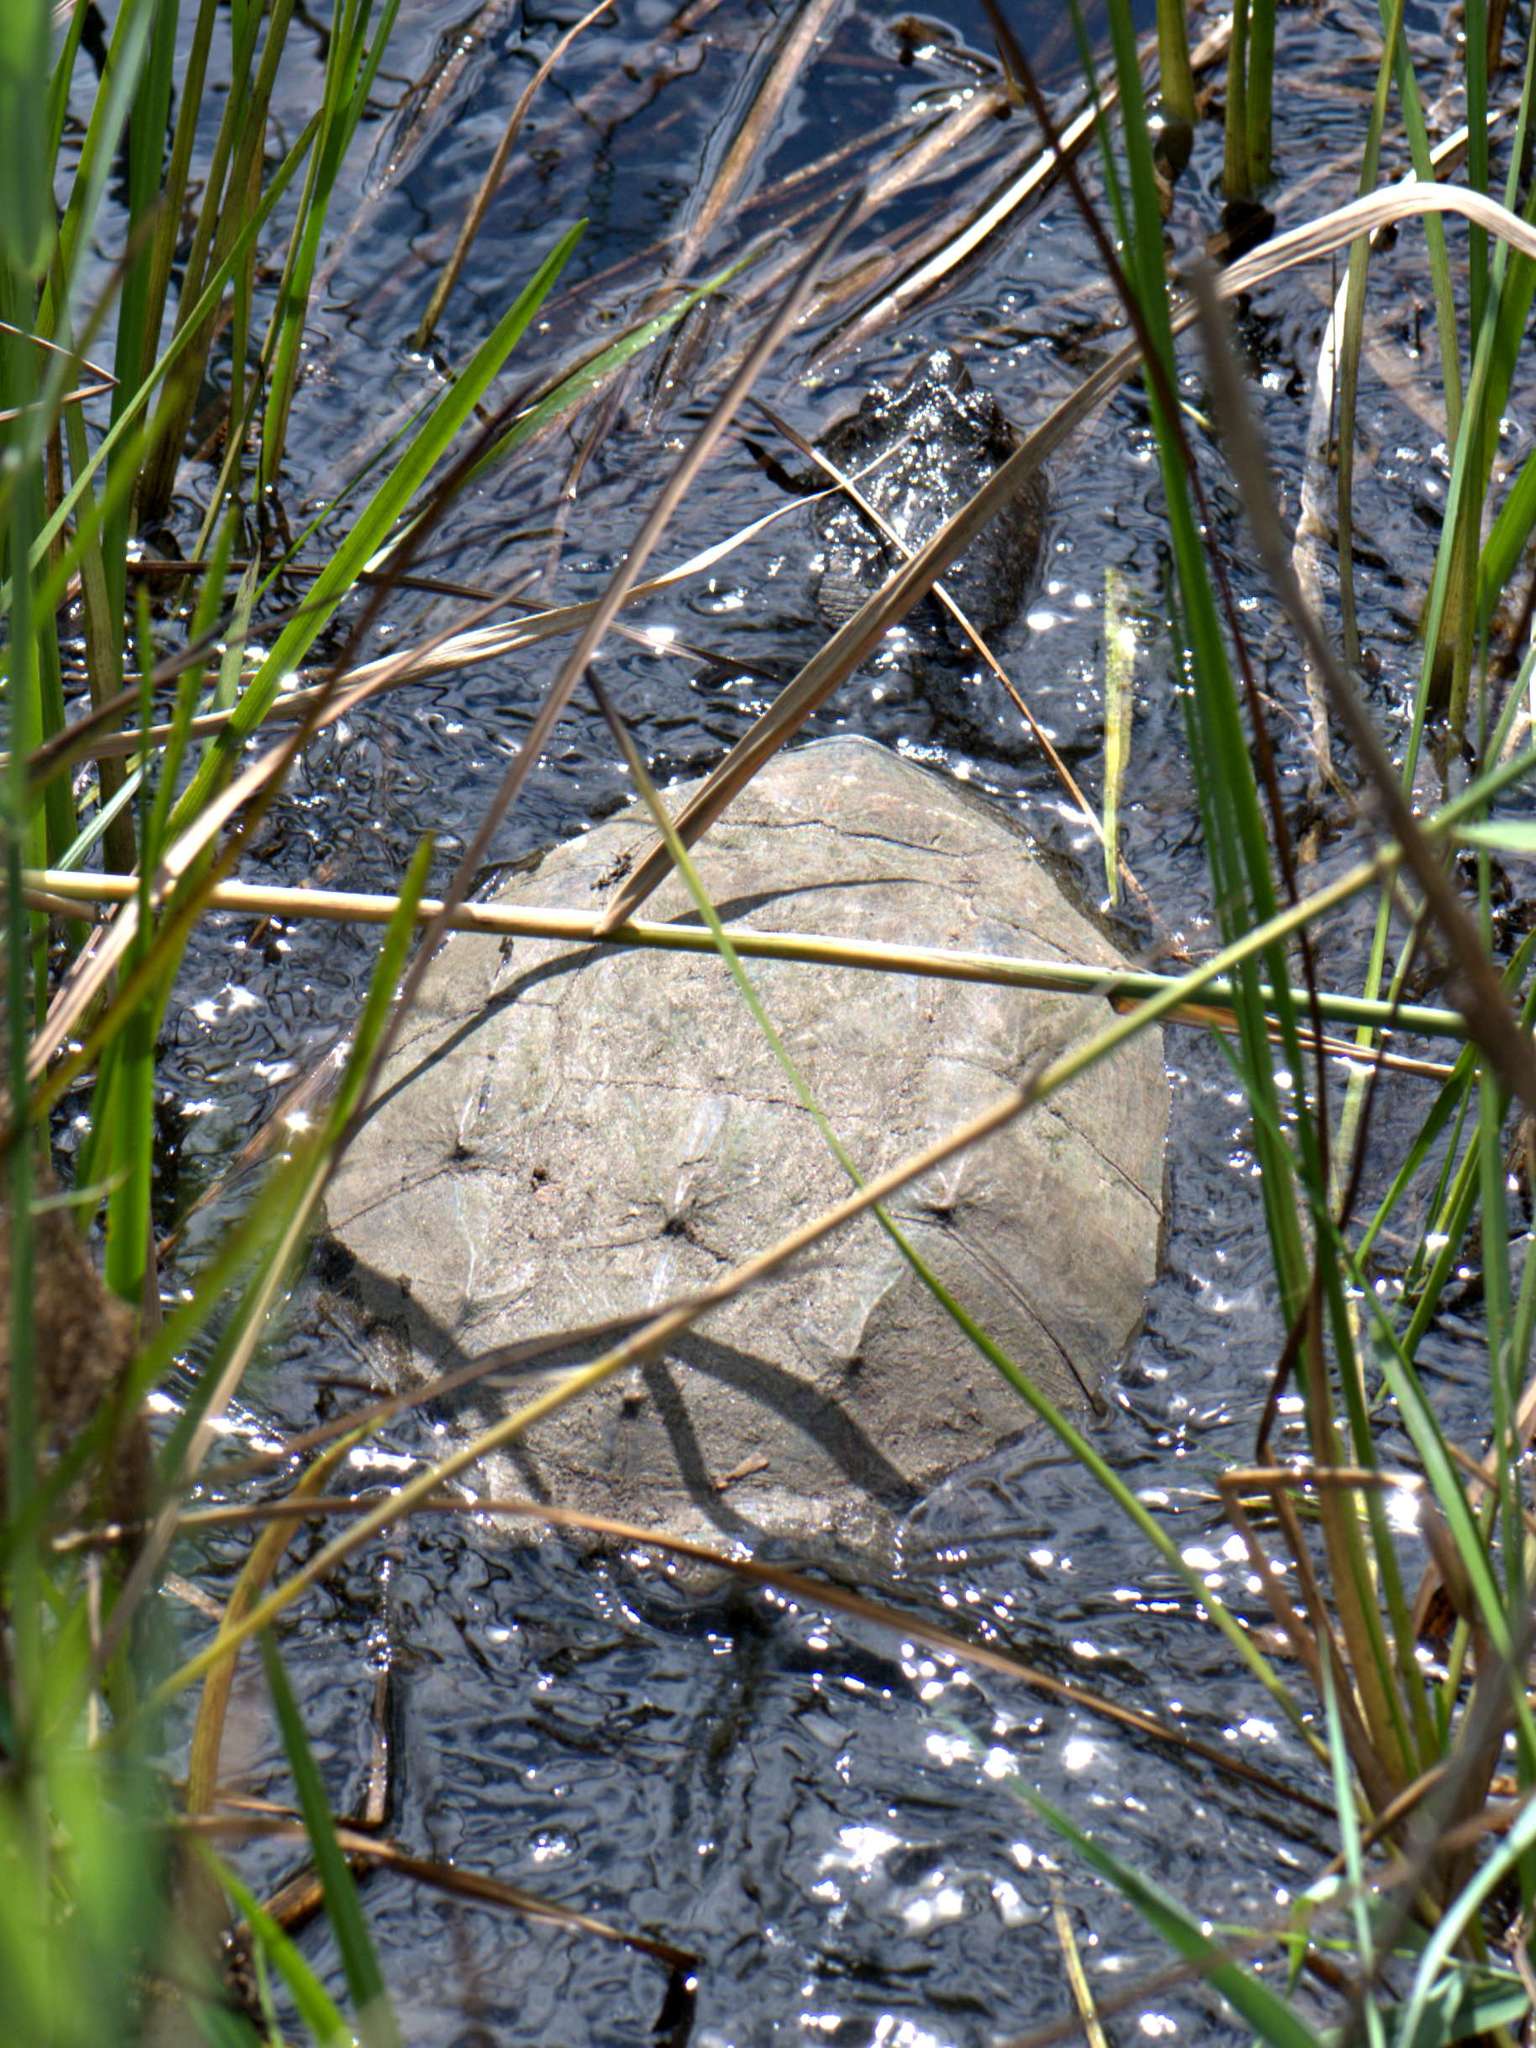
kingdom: Animalia
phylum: Chordata
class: Testudines
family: Chelydridae
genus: Chelydra
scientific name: Chelydra serpentina
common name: Common snapping turtle
